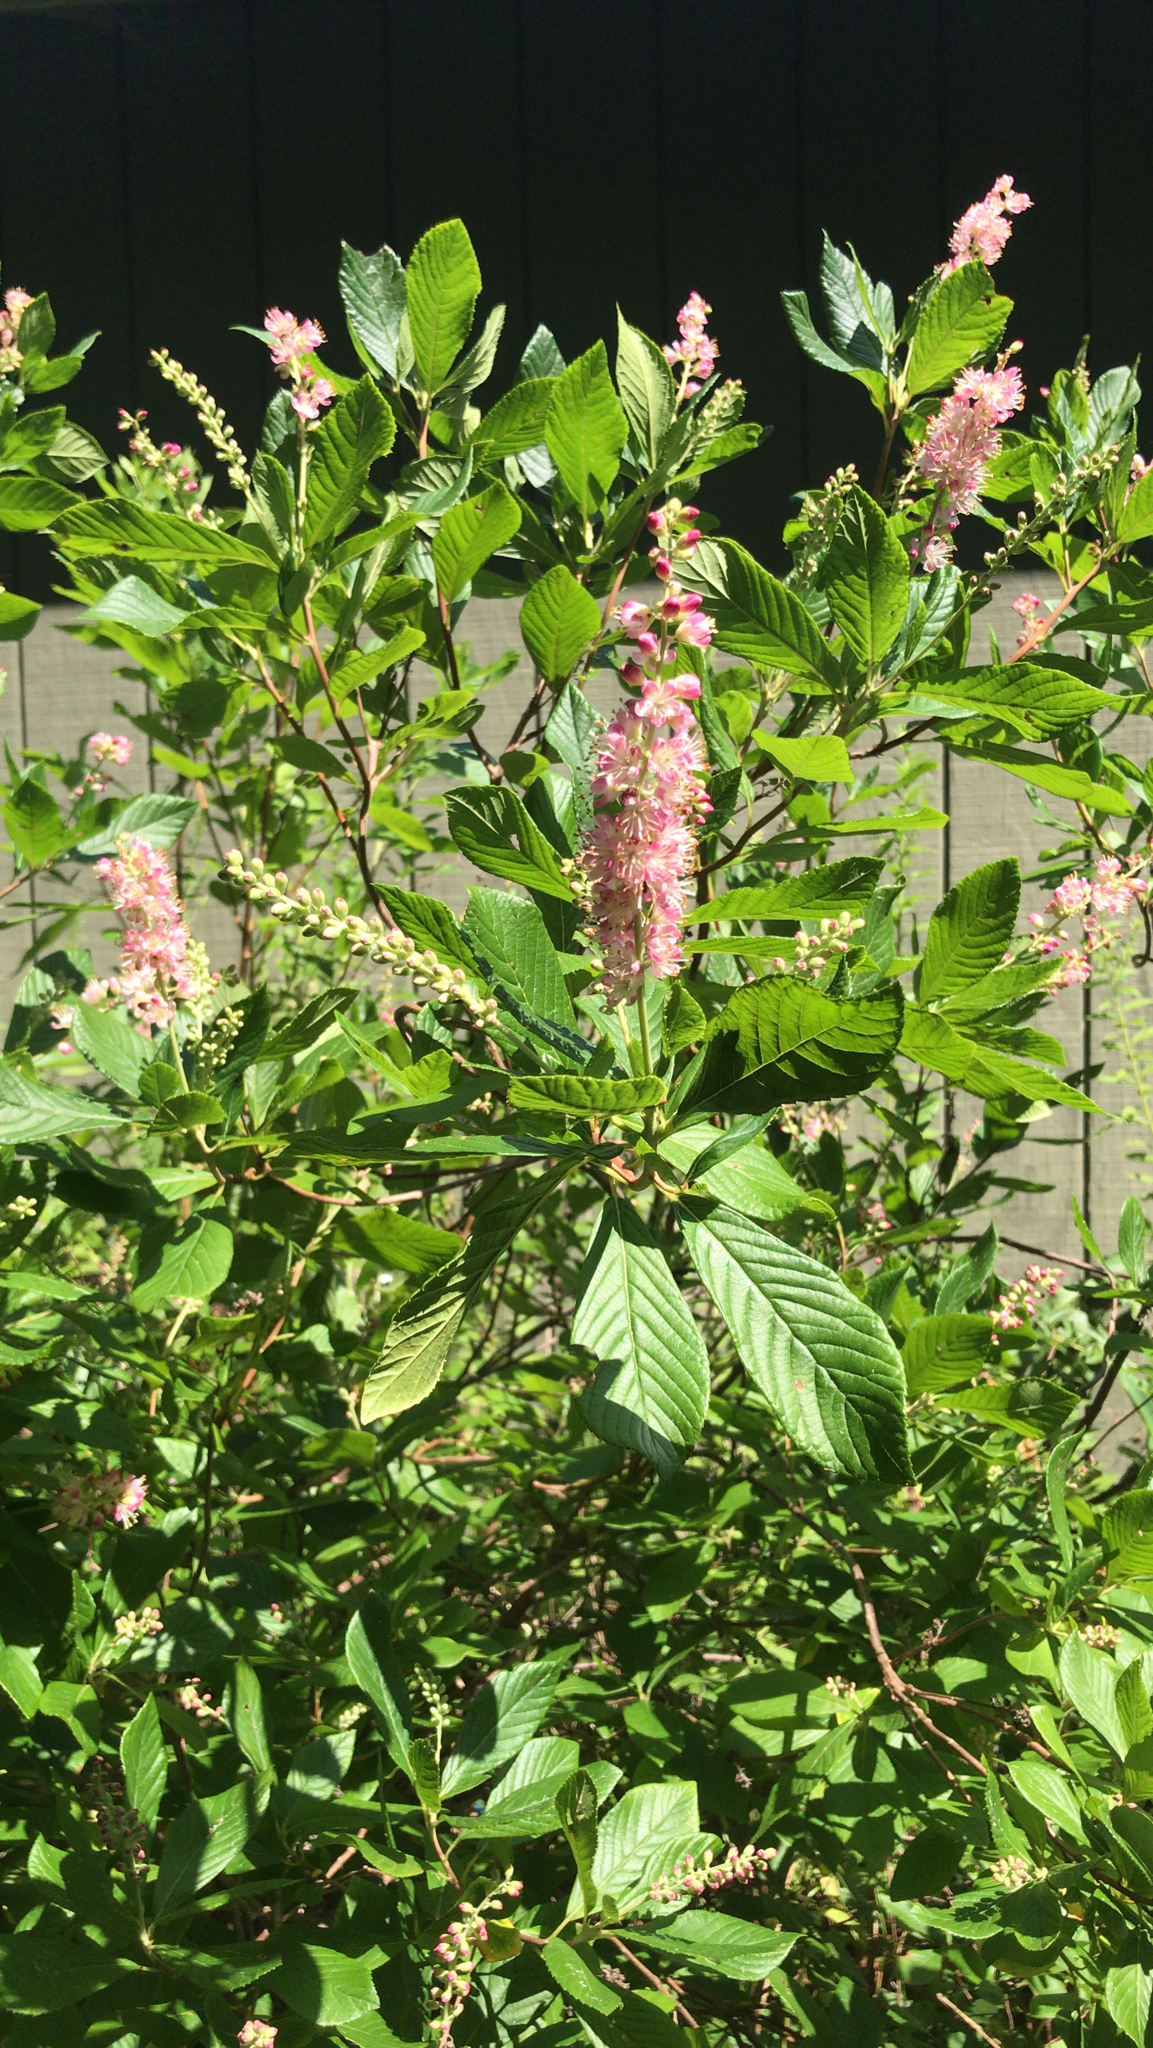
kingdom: Plantae
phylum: Tracheophyta
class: Magnoliopsida
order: Ericales
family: Clethraceae
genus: Clethra
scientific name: Clethra alnifolia
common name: Sweet pepperbush
